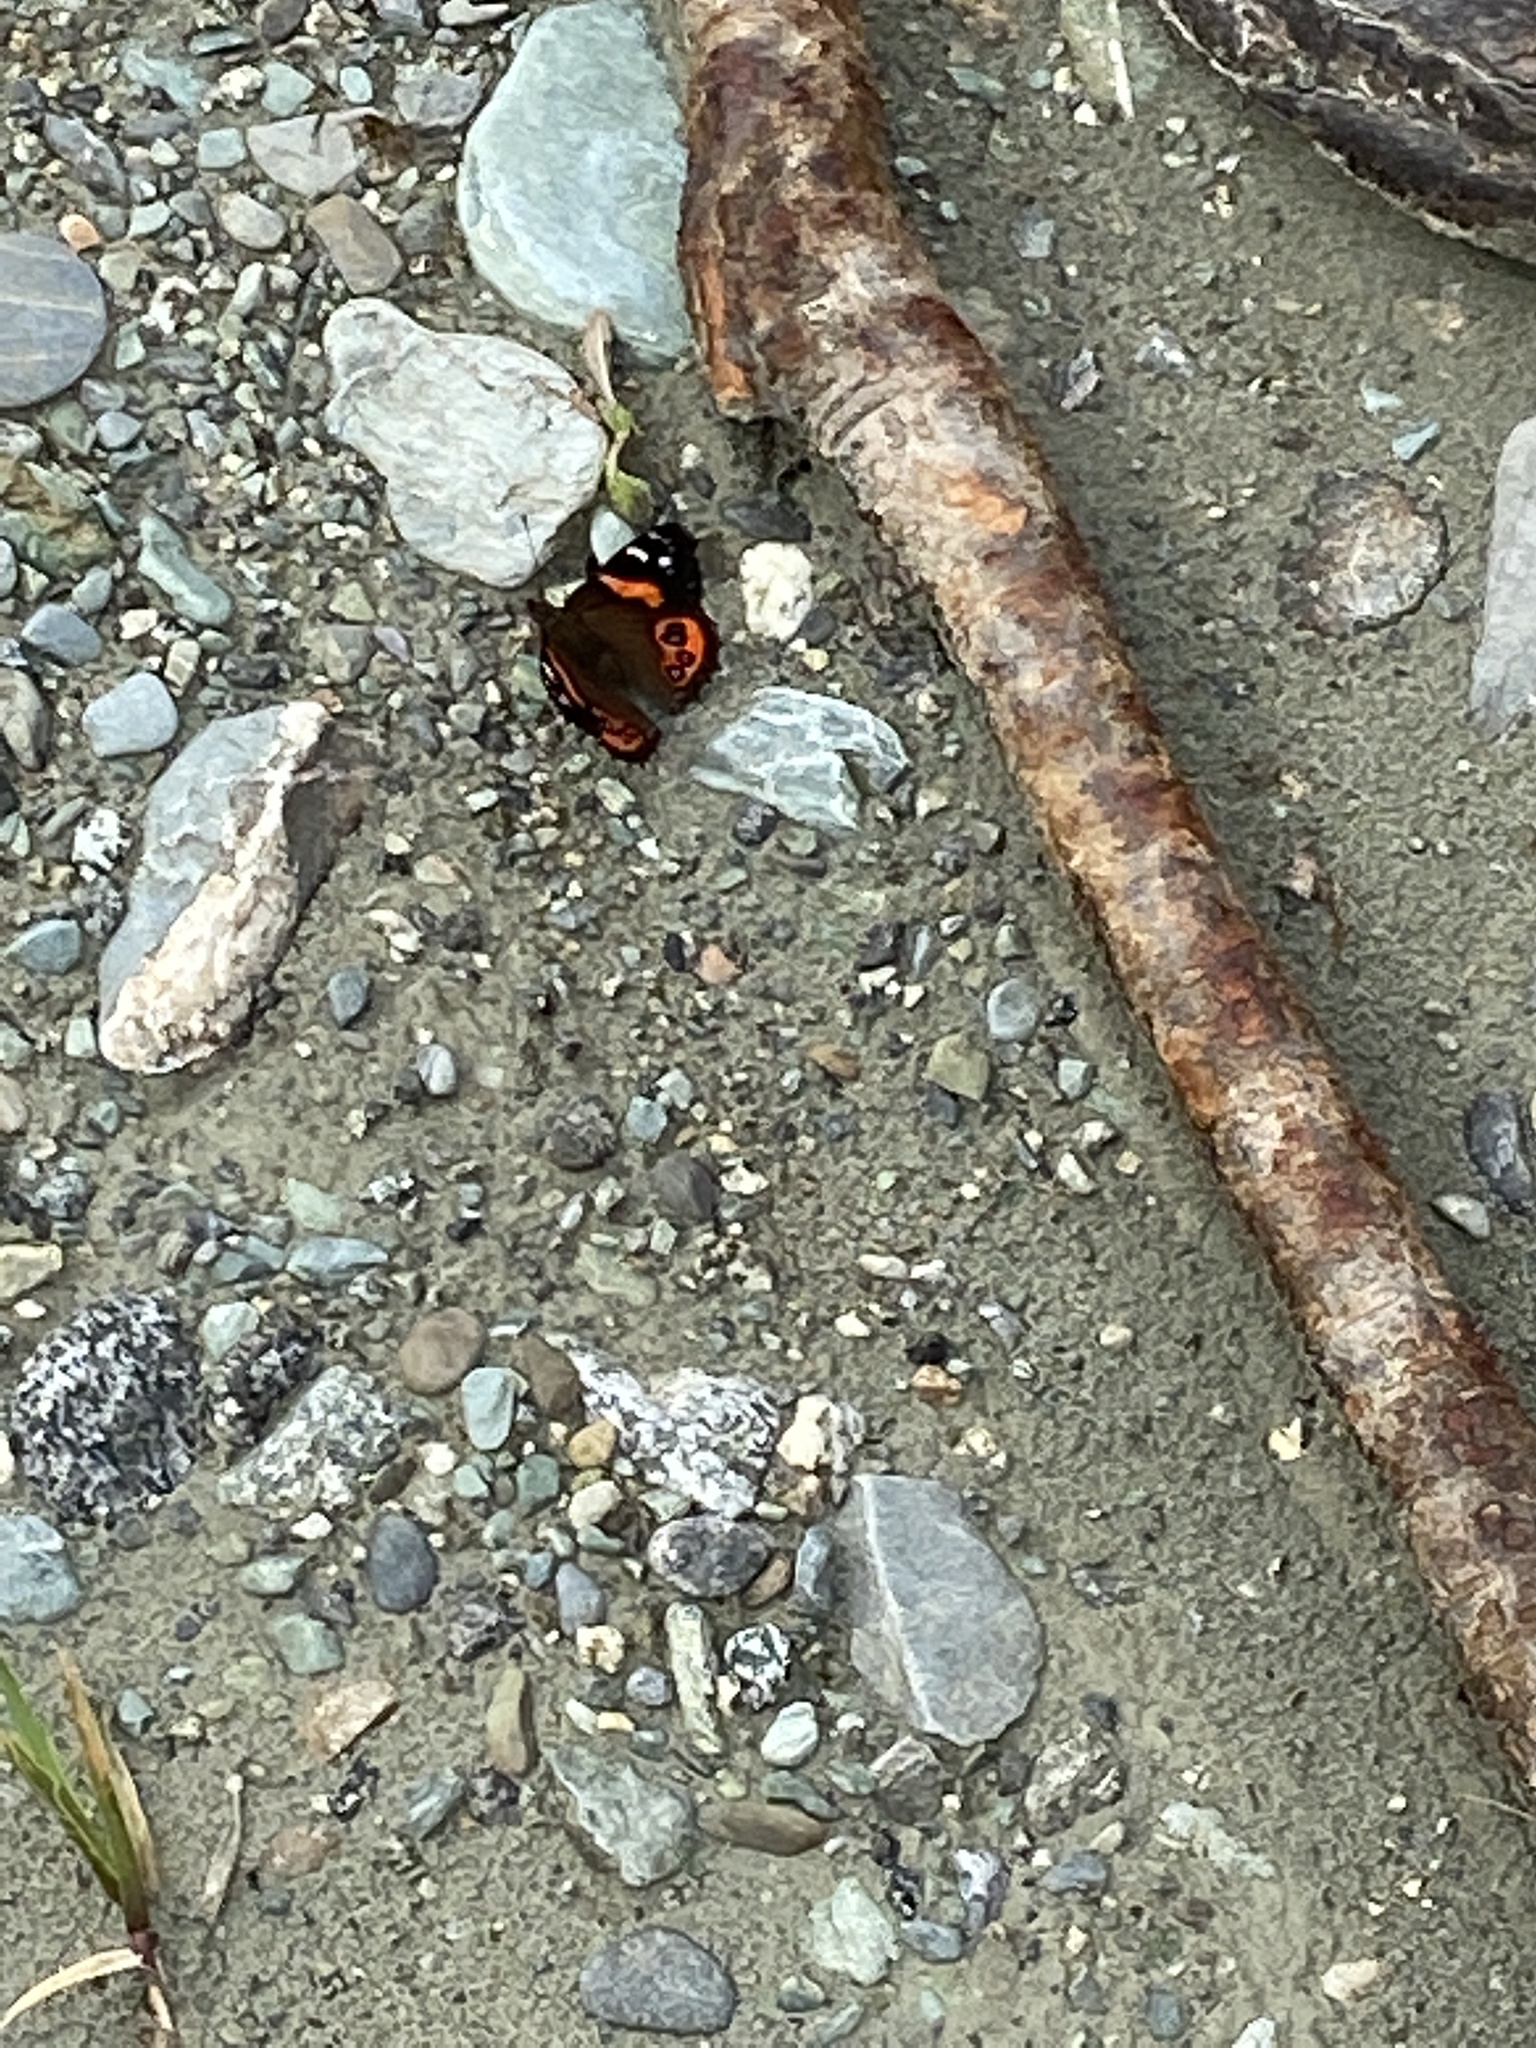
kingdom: Animalia
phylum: Arthropoda
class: Insecta
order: Lepidoptera
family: Nymphalidae
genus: Vanessa
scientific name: Vanessa gonerilla
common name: New zealand red admiral
